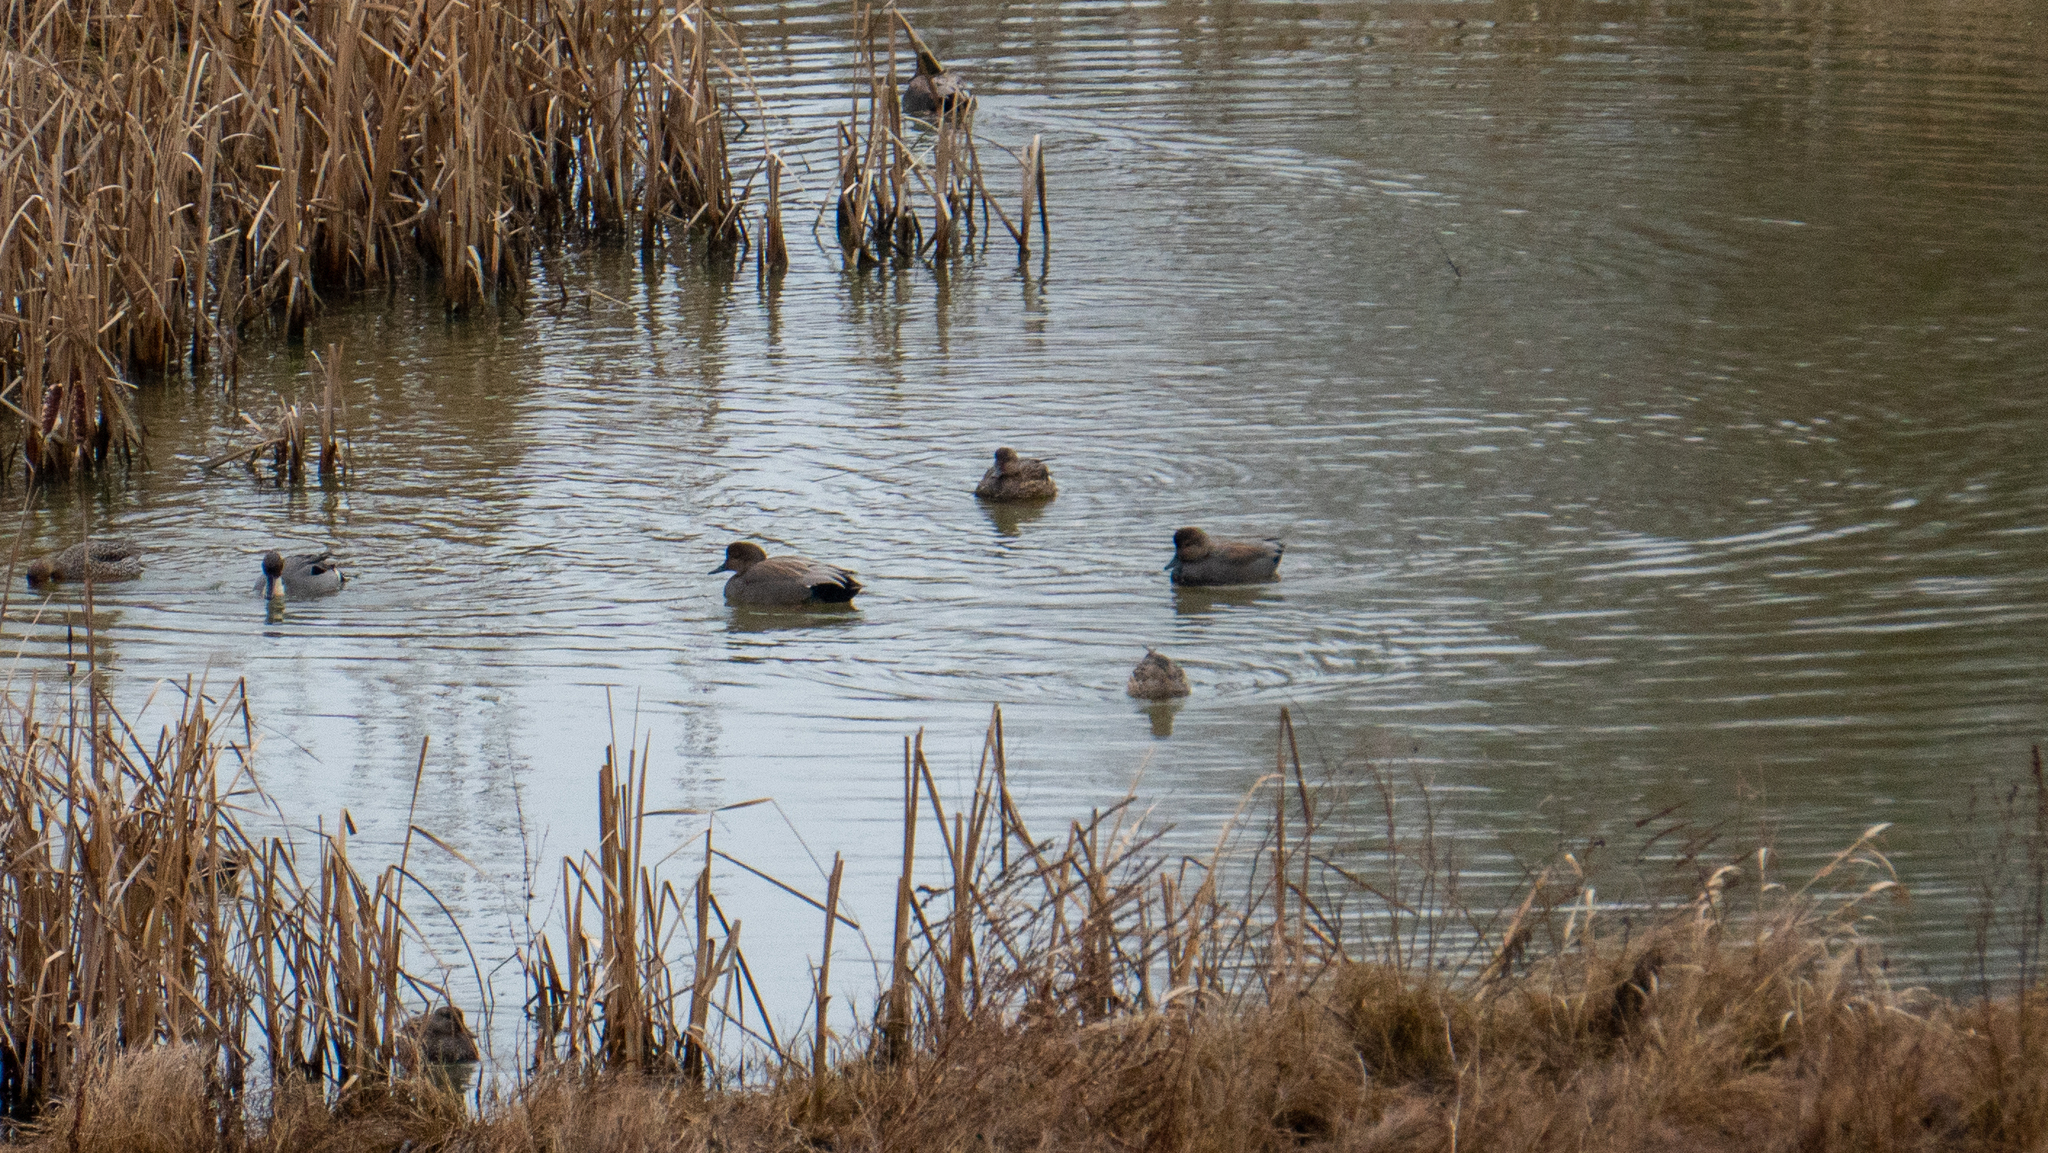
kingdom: Animalia
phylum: Chordata
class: Aves
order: Anseriformes
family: Anatidae
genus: Mareca
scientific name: Mareca strepera
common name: Gadwall
